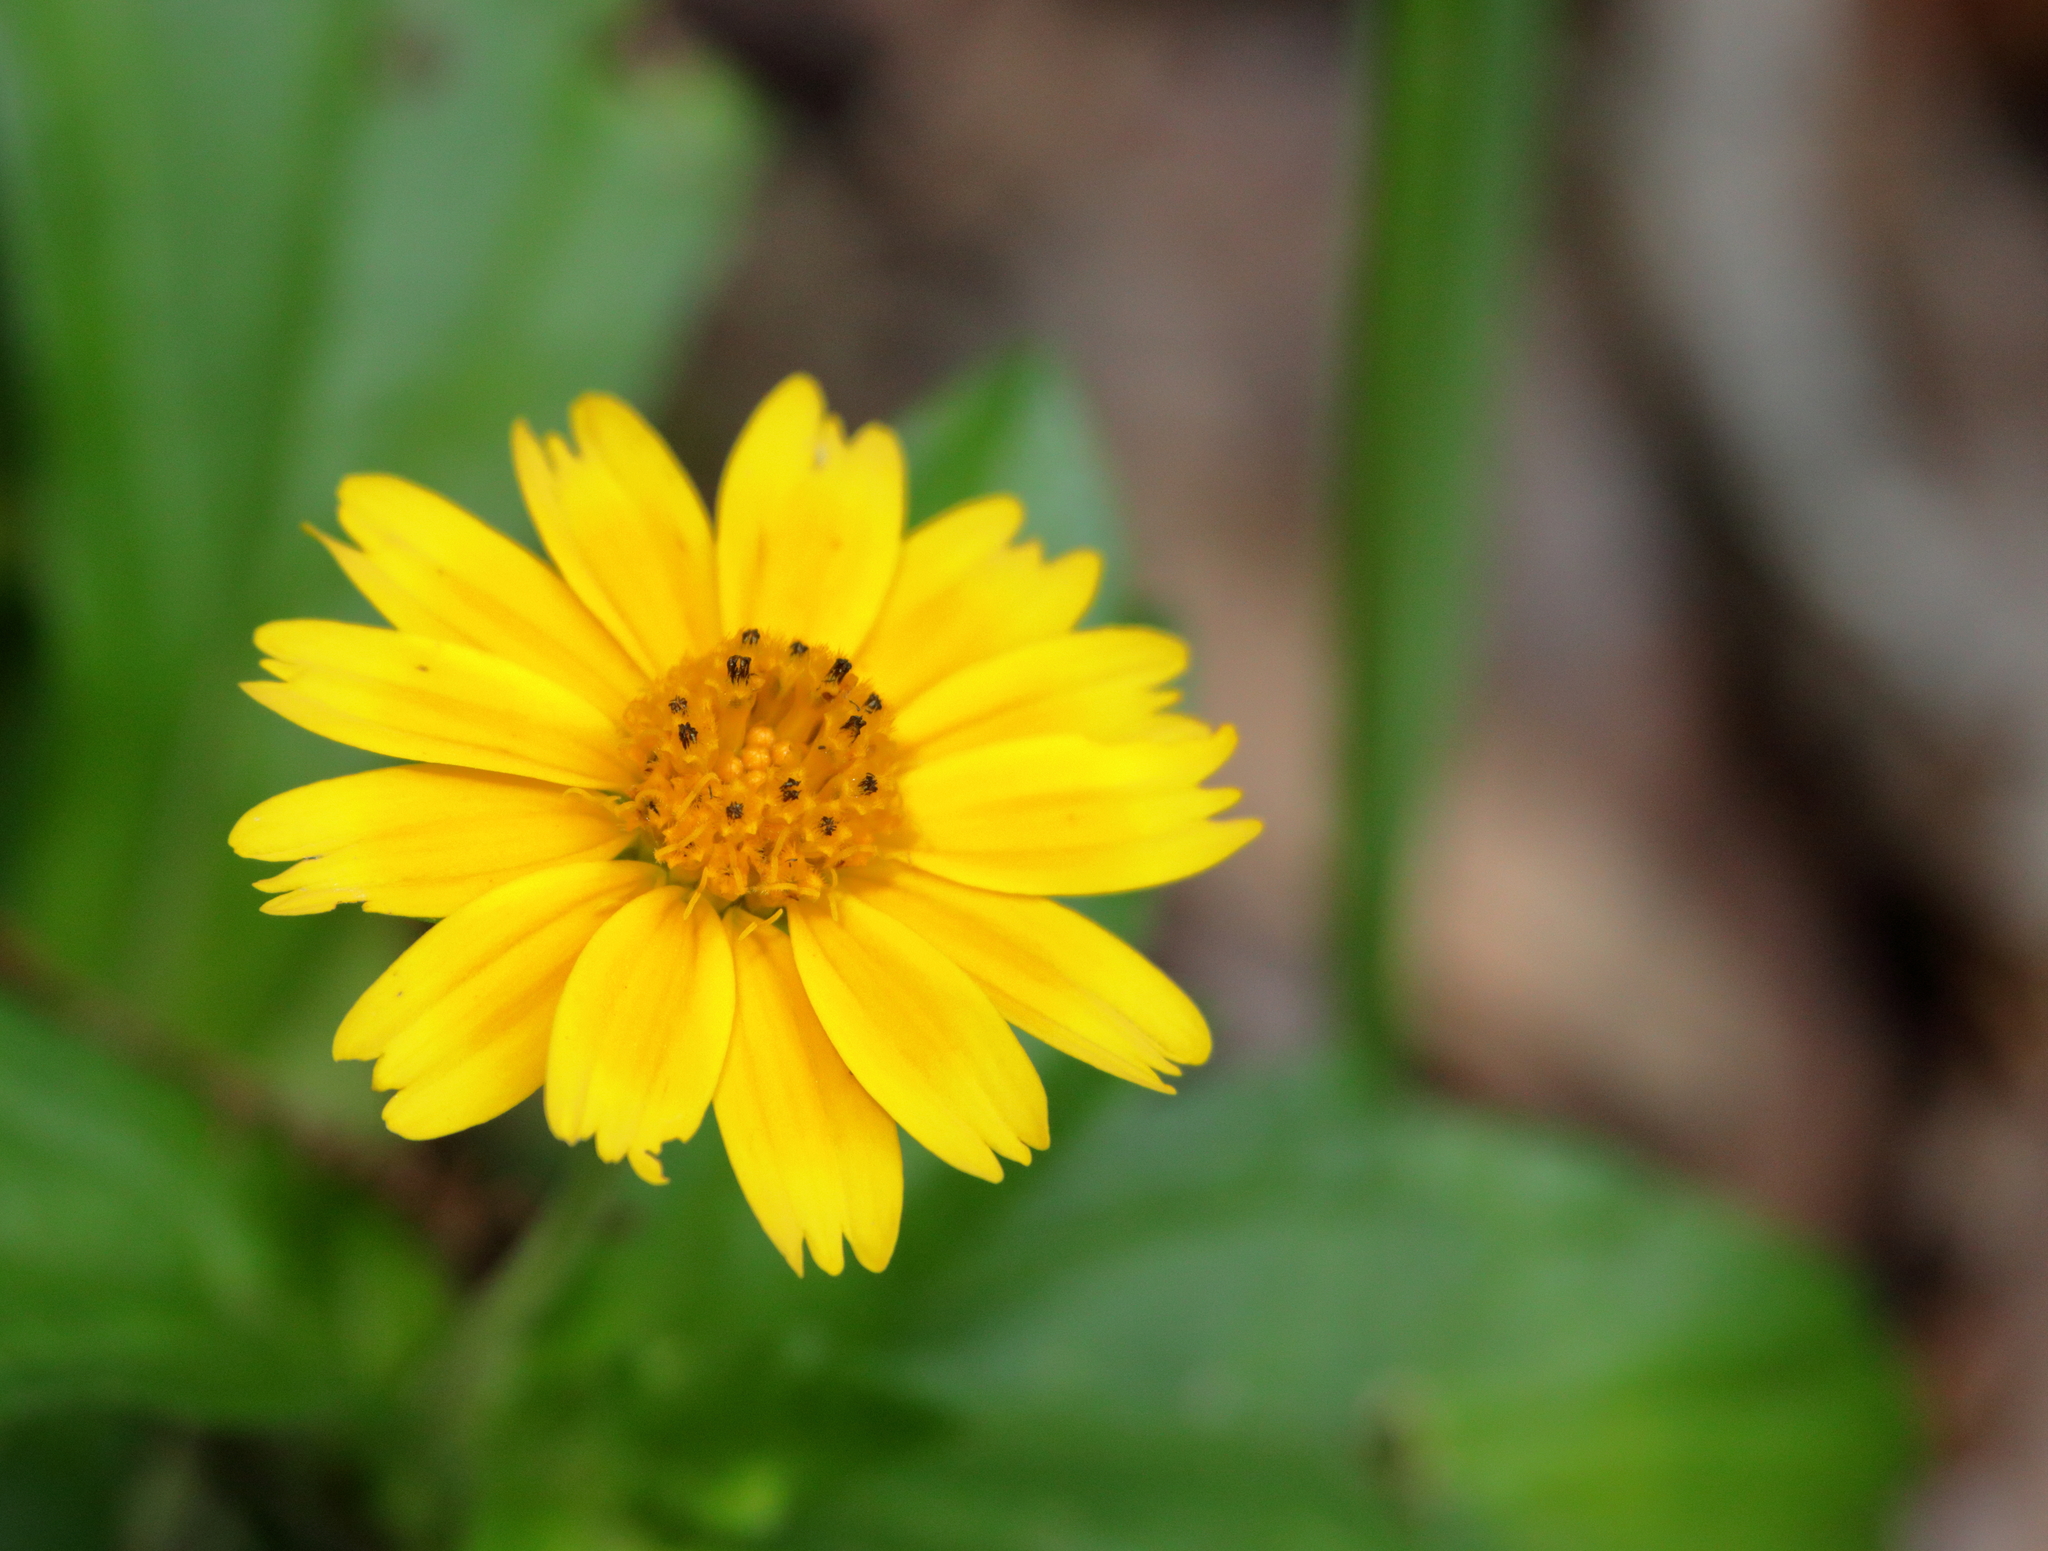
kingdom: Plantae
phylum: Tracheophyta
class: Magnoliopsida
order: Asterales
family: Asteraceae
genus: Sphagneticola
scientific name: Sphagneticola trilobata
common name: Bay biscayne creeping-oxeye
